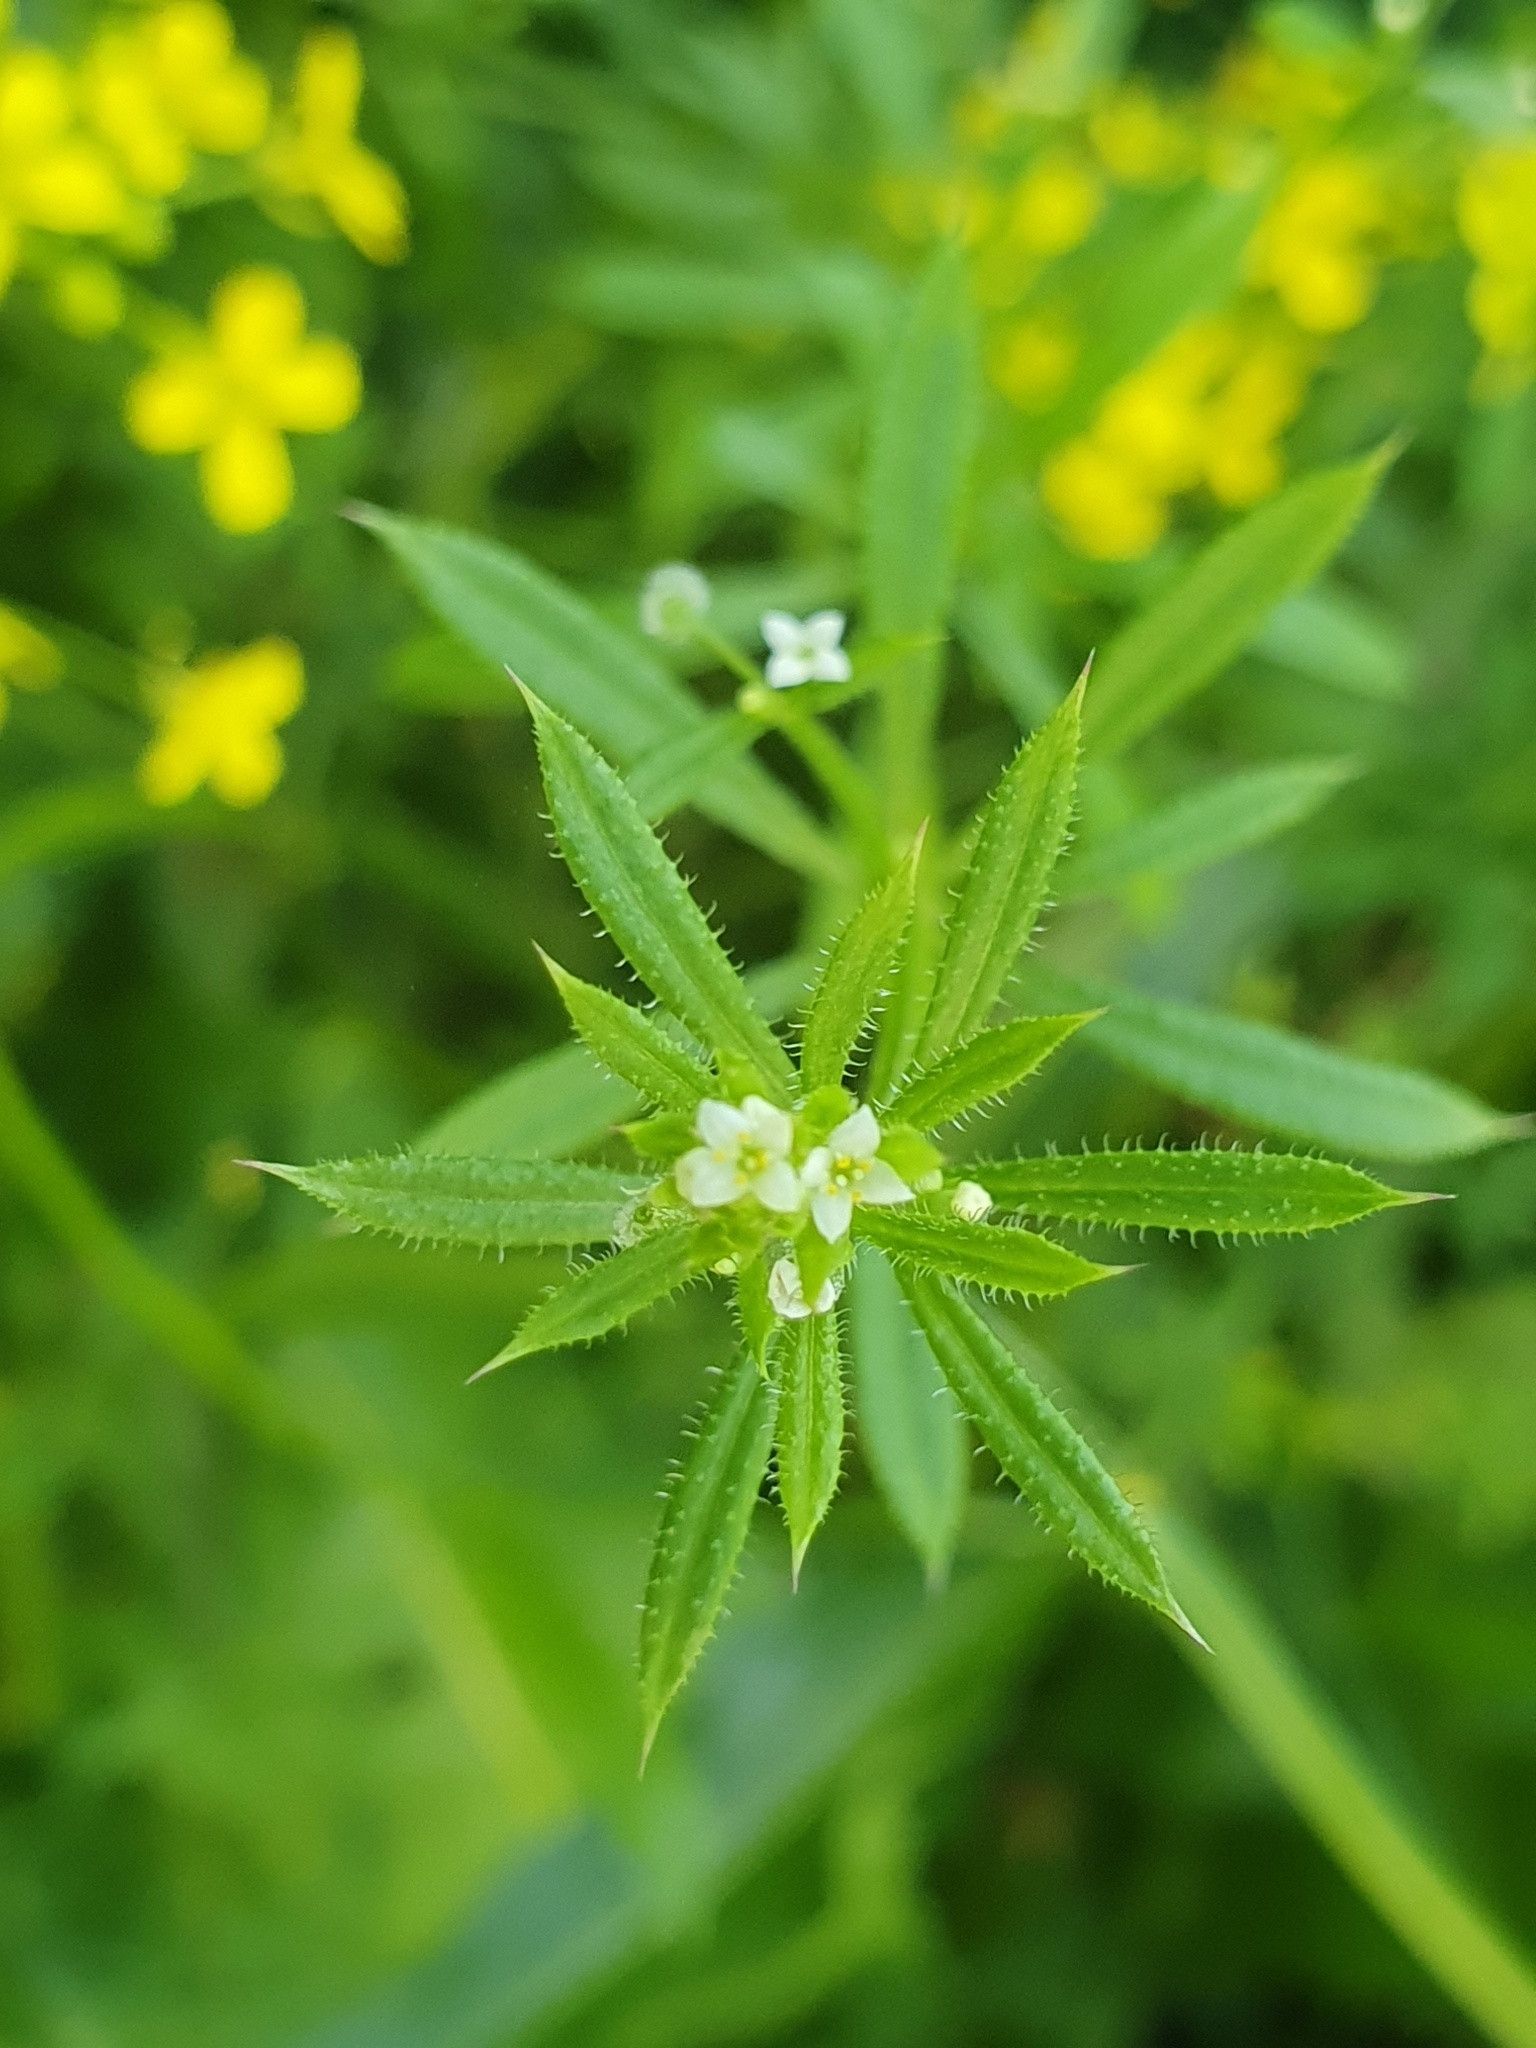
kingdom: Plantae
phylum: Tracheophyta
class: Magnoliopsida
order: Gentianales
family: Rubiaceae
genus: Galium
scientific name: Galium aparine
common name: Cleavers
